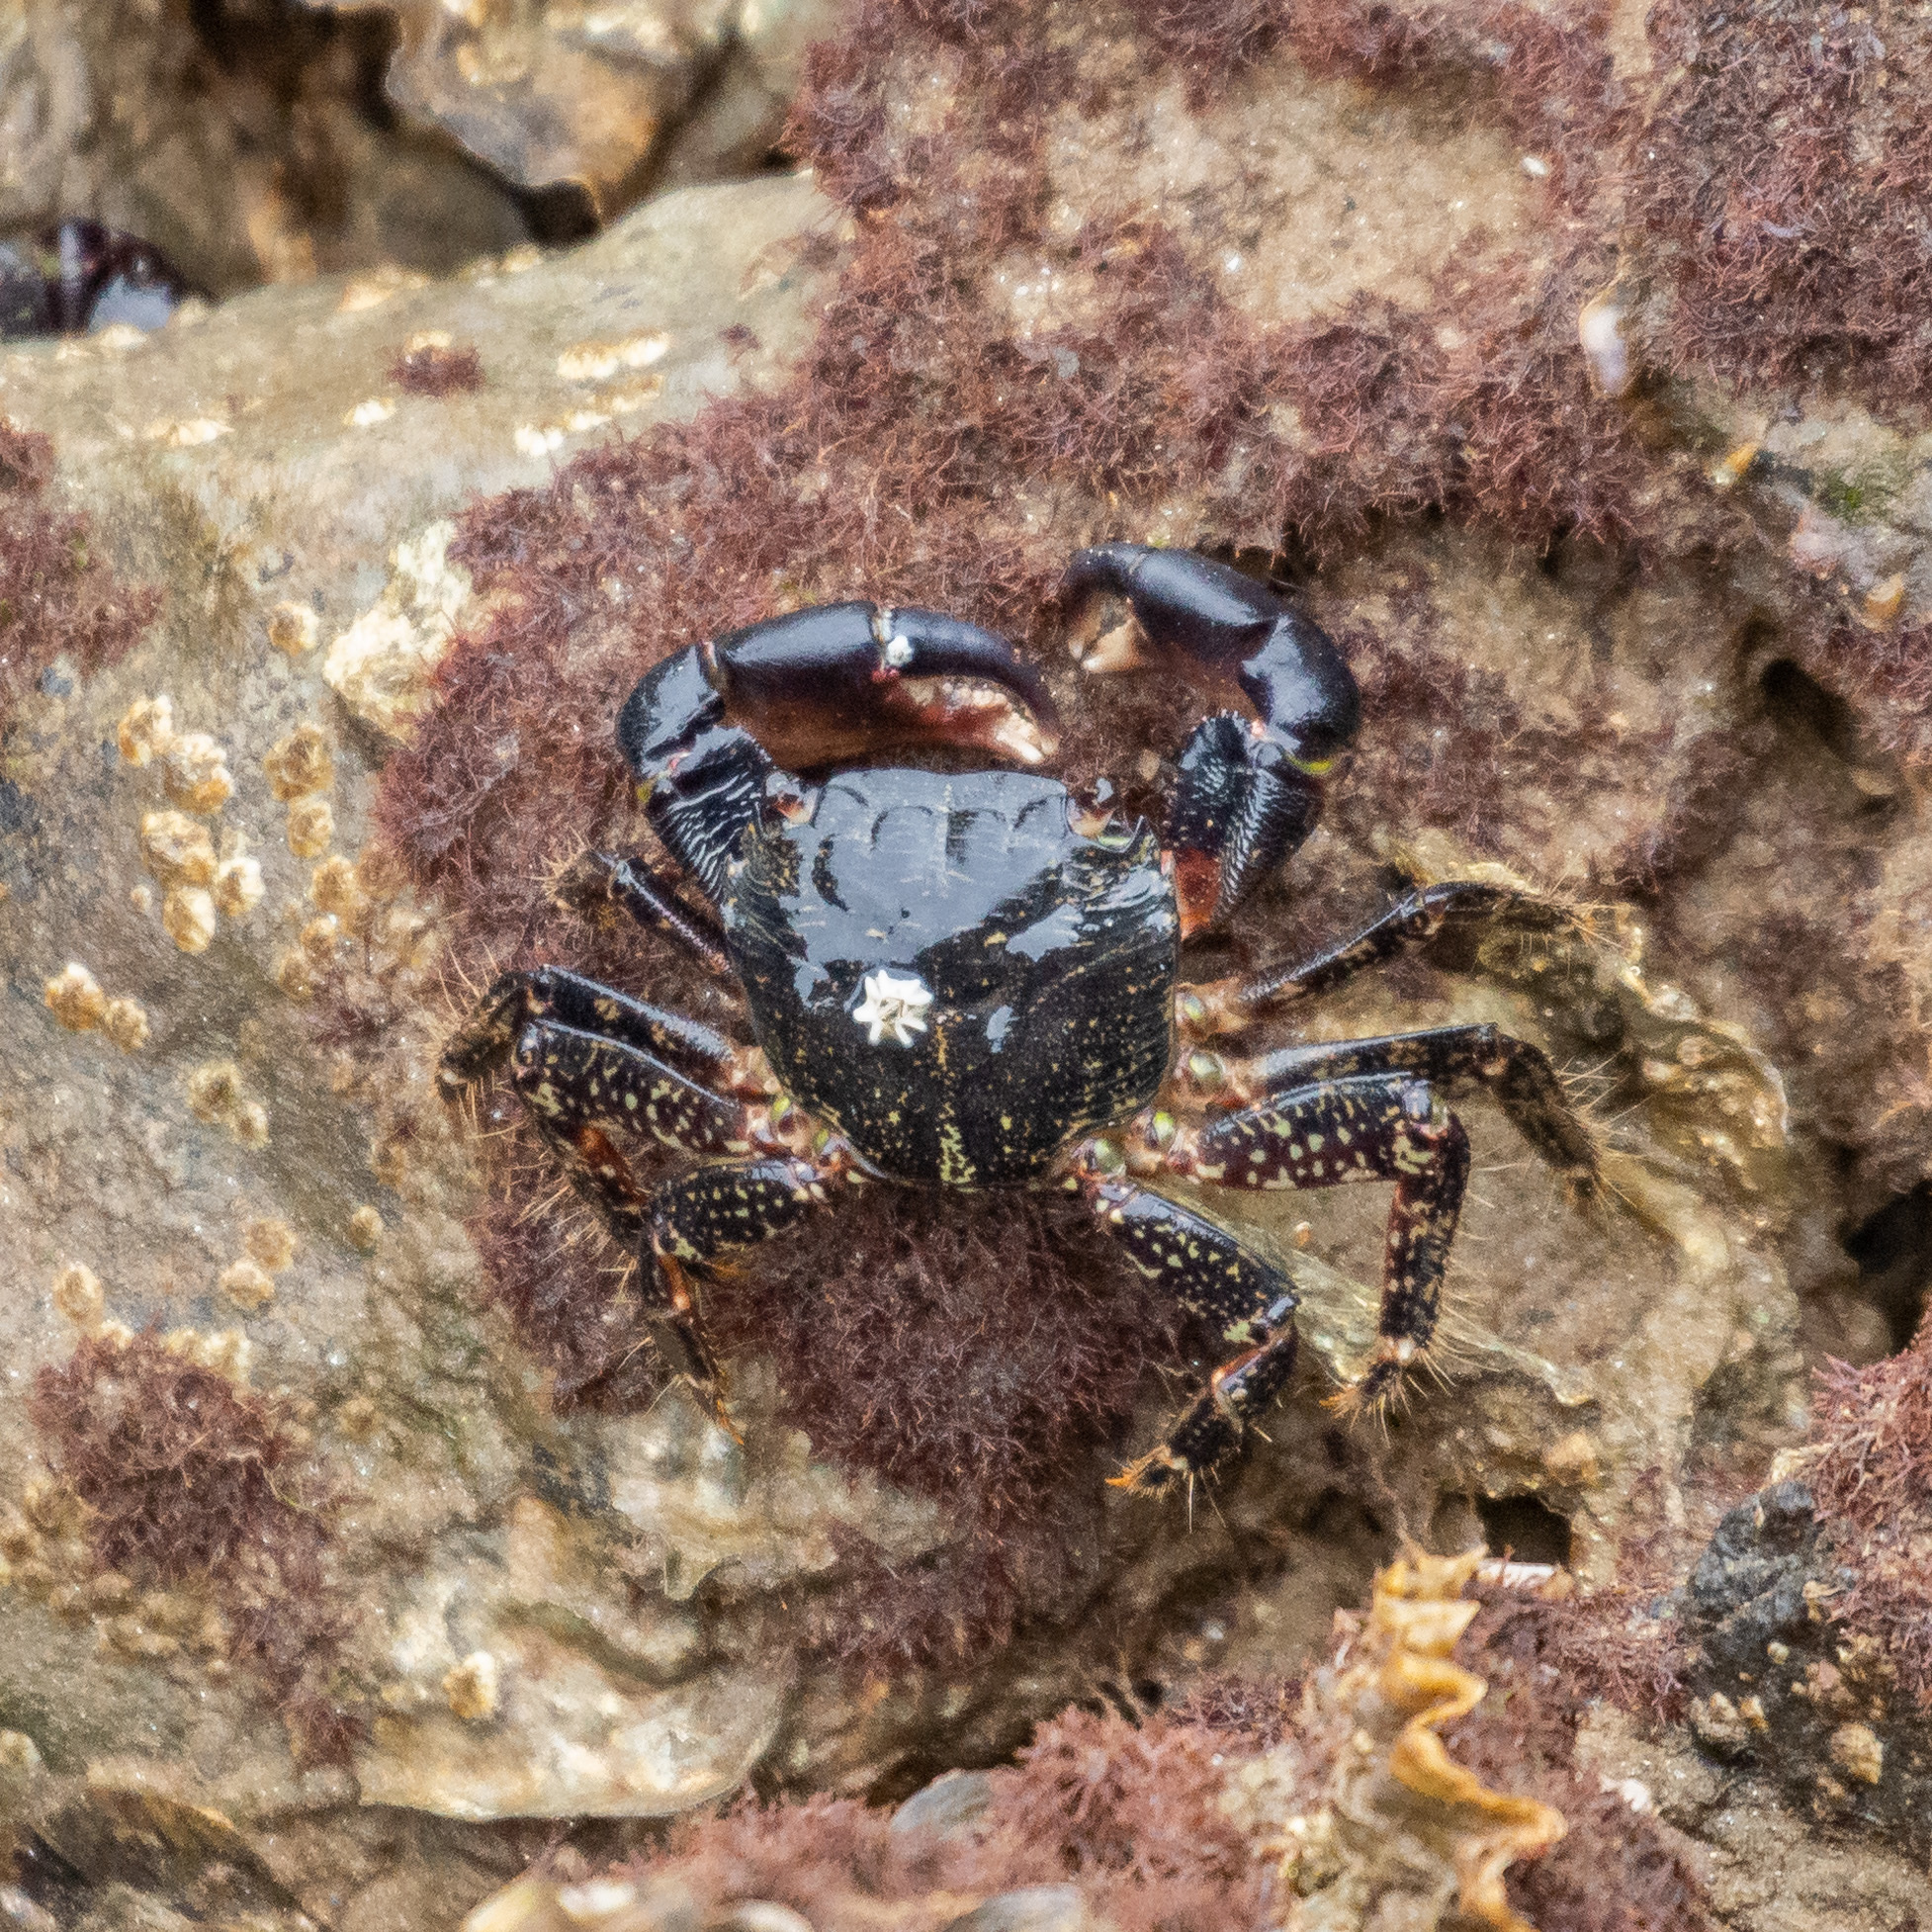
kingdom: Animalia
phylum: Arthropoda
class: Malacostraca
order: Decapoda
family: Grapsidae
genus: Pachygrapsus
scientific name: Pachygrapsus marmoratus
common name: Marbled rock crab
